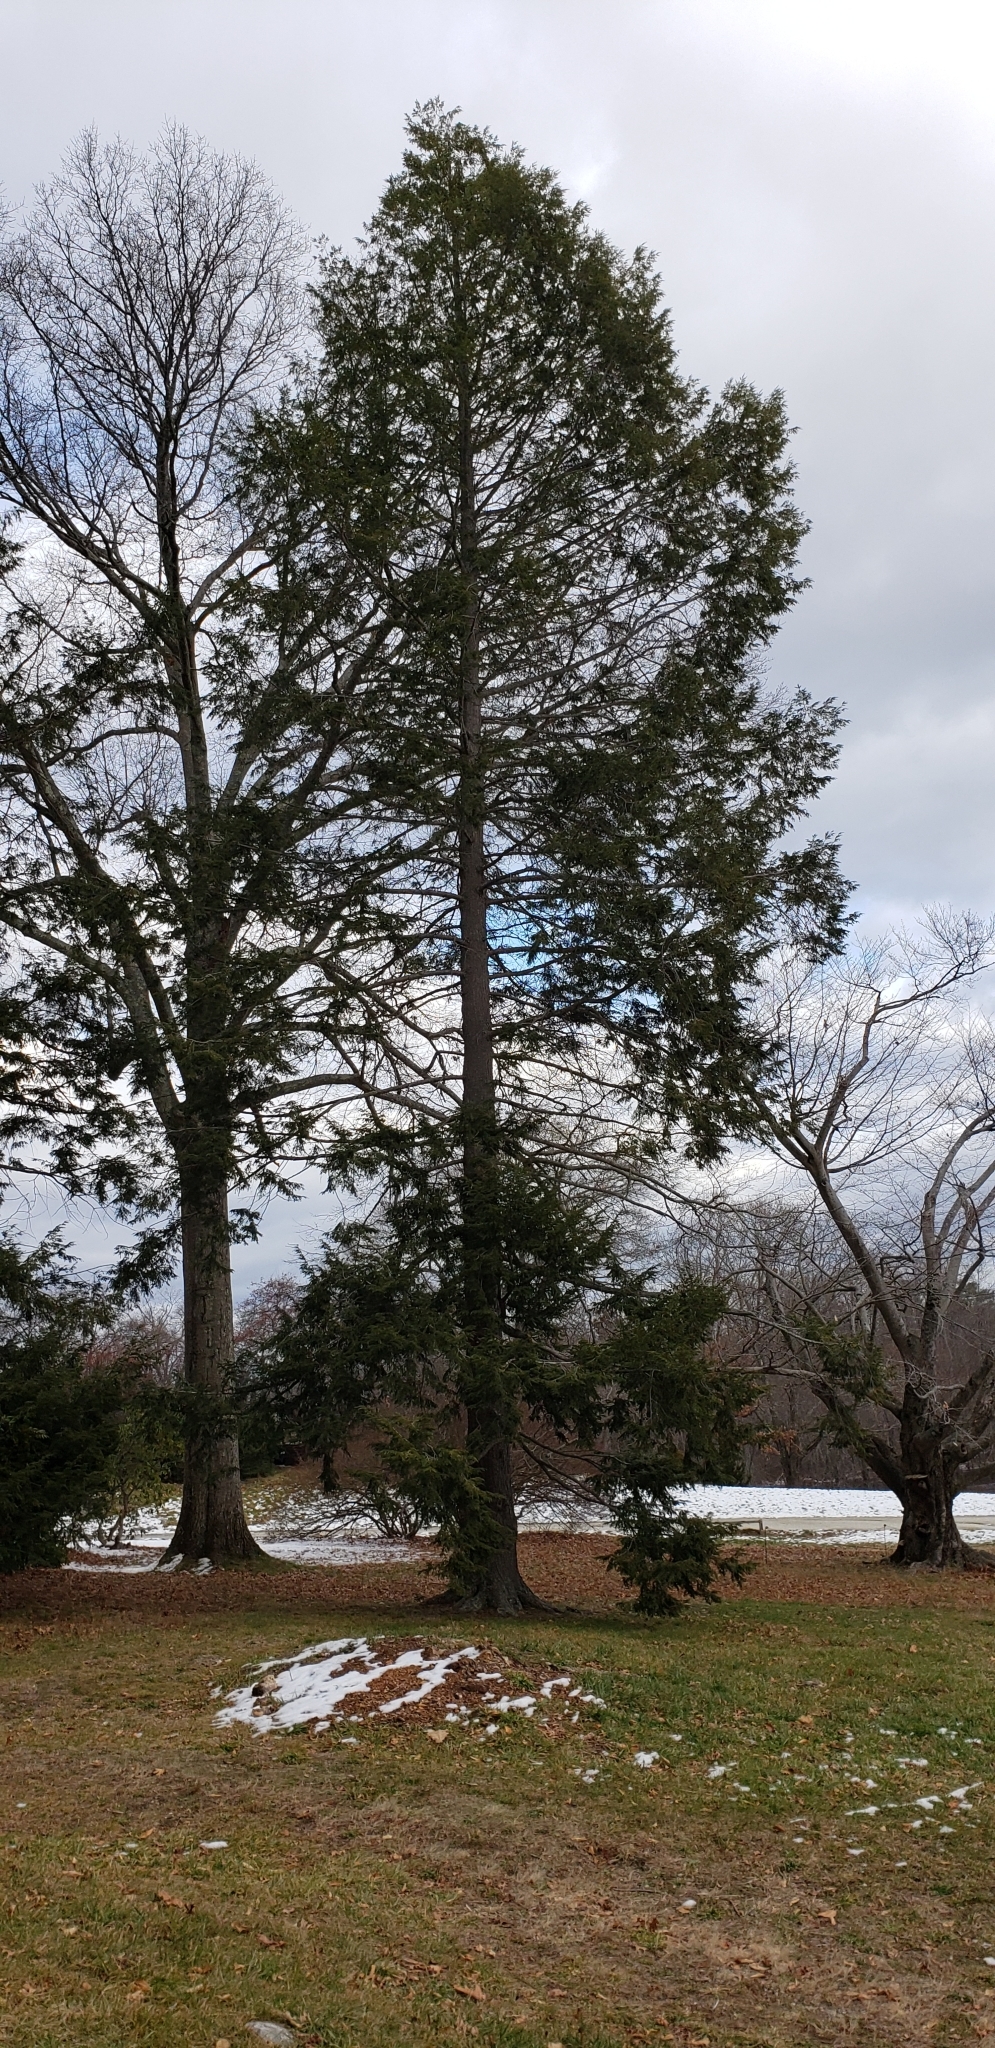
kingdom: Plantae
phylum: Tracheophyta
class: Pinopsida
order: Pinales
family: Pinaceae
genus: Tsuga
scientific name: Tsuga canadensis
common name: Eastern hemlock
